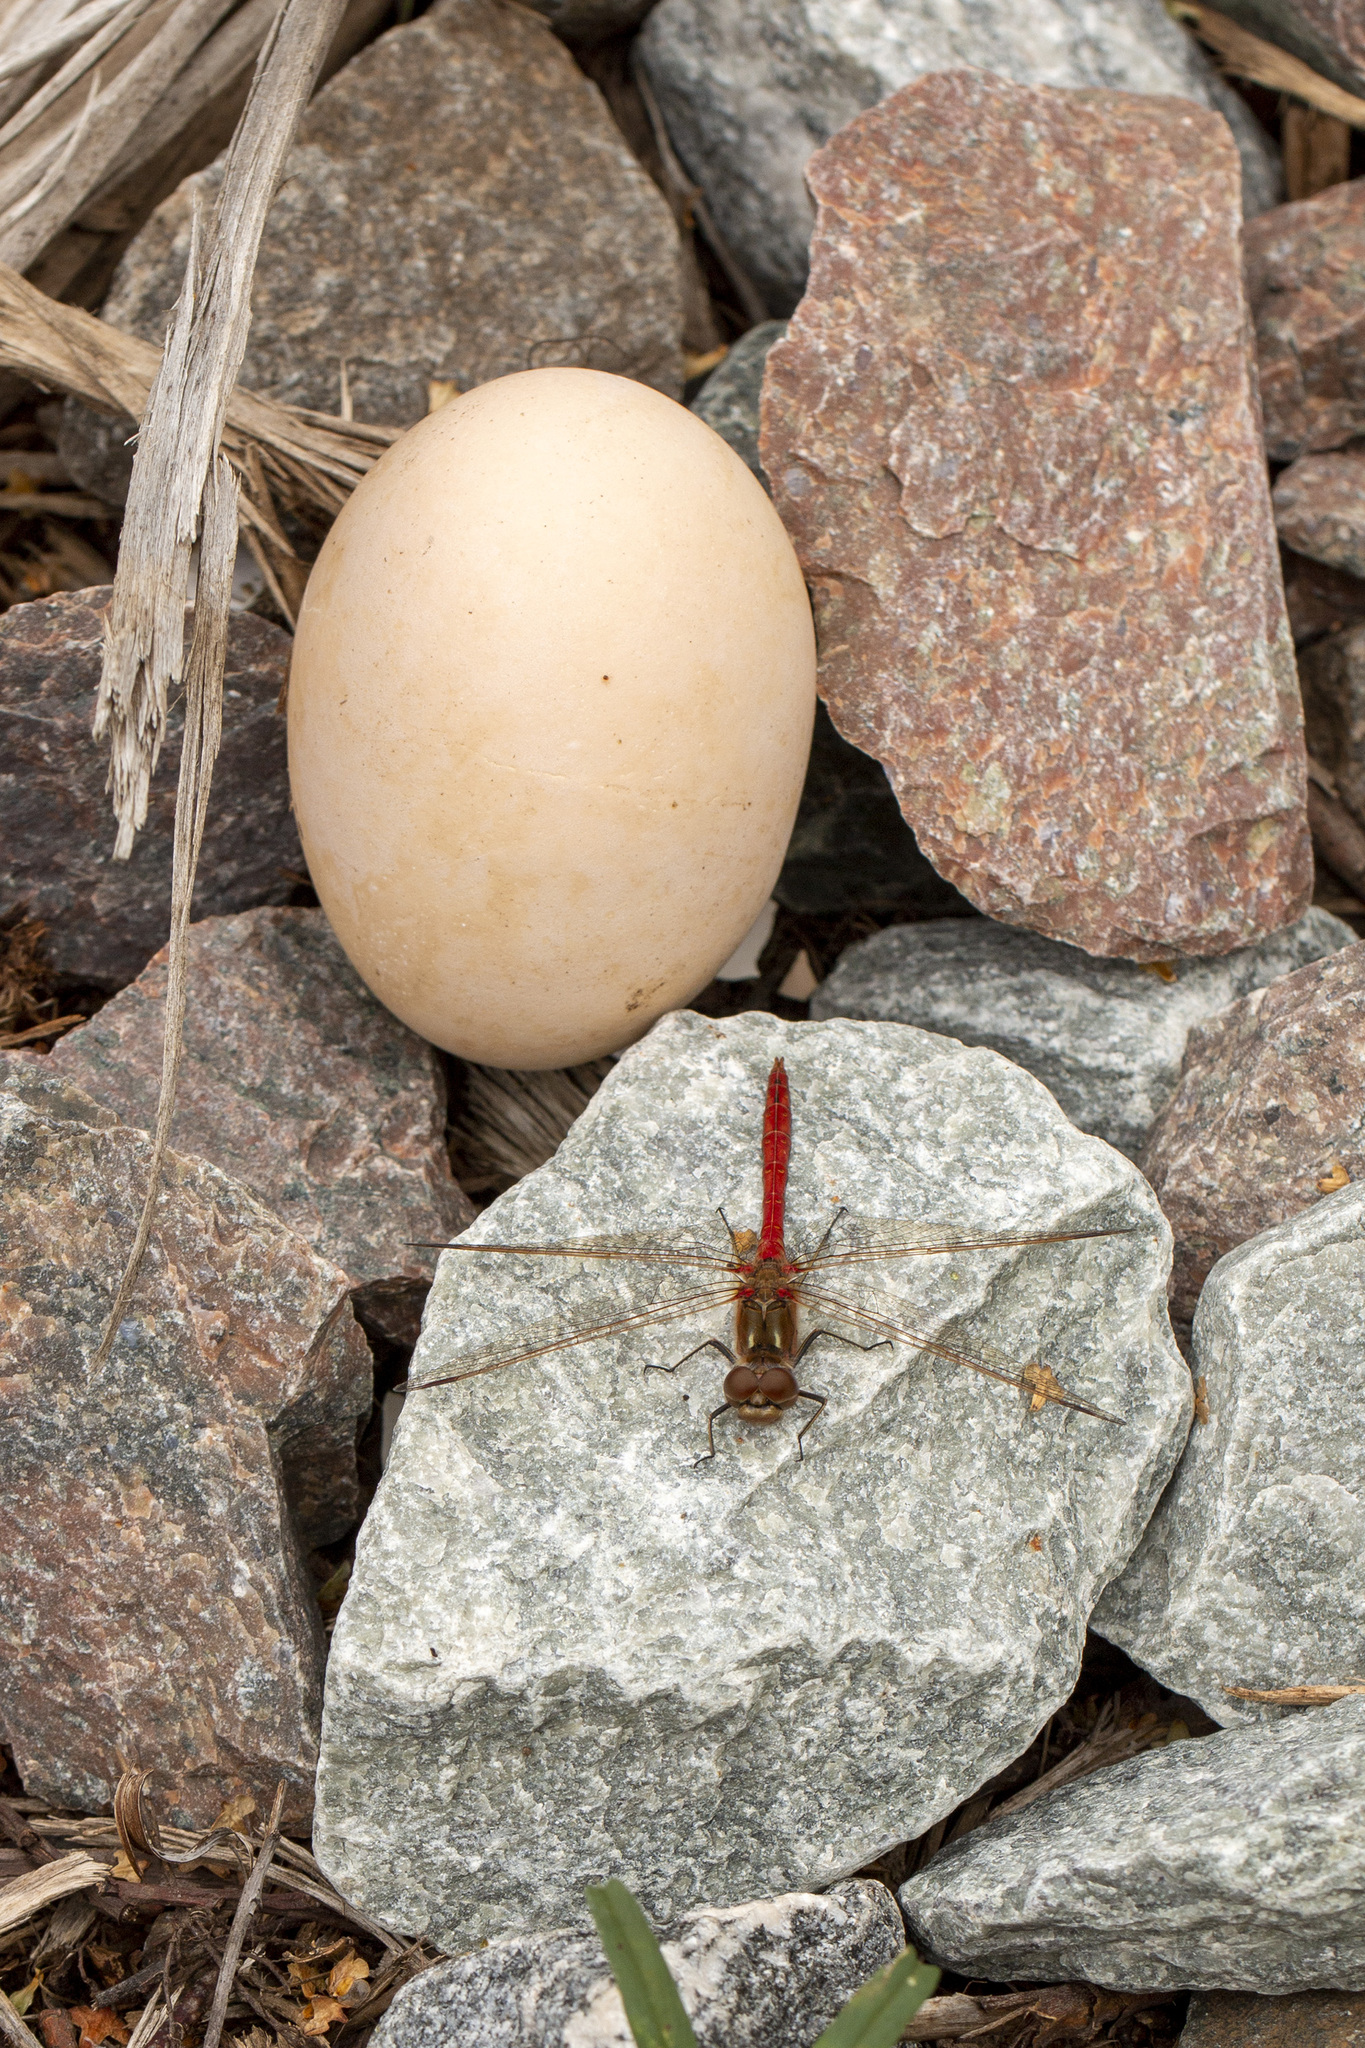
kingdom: Animalia
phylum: Arthropoda
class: Insecta
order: Odonata
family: Libellulidae
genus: Sympetrum
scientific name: Sympetrum vulgatum
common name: Vagrant darter
